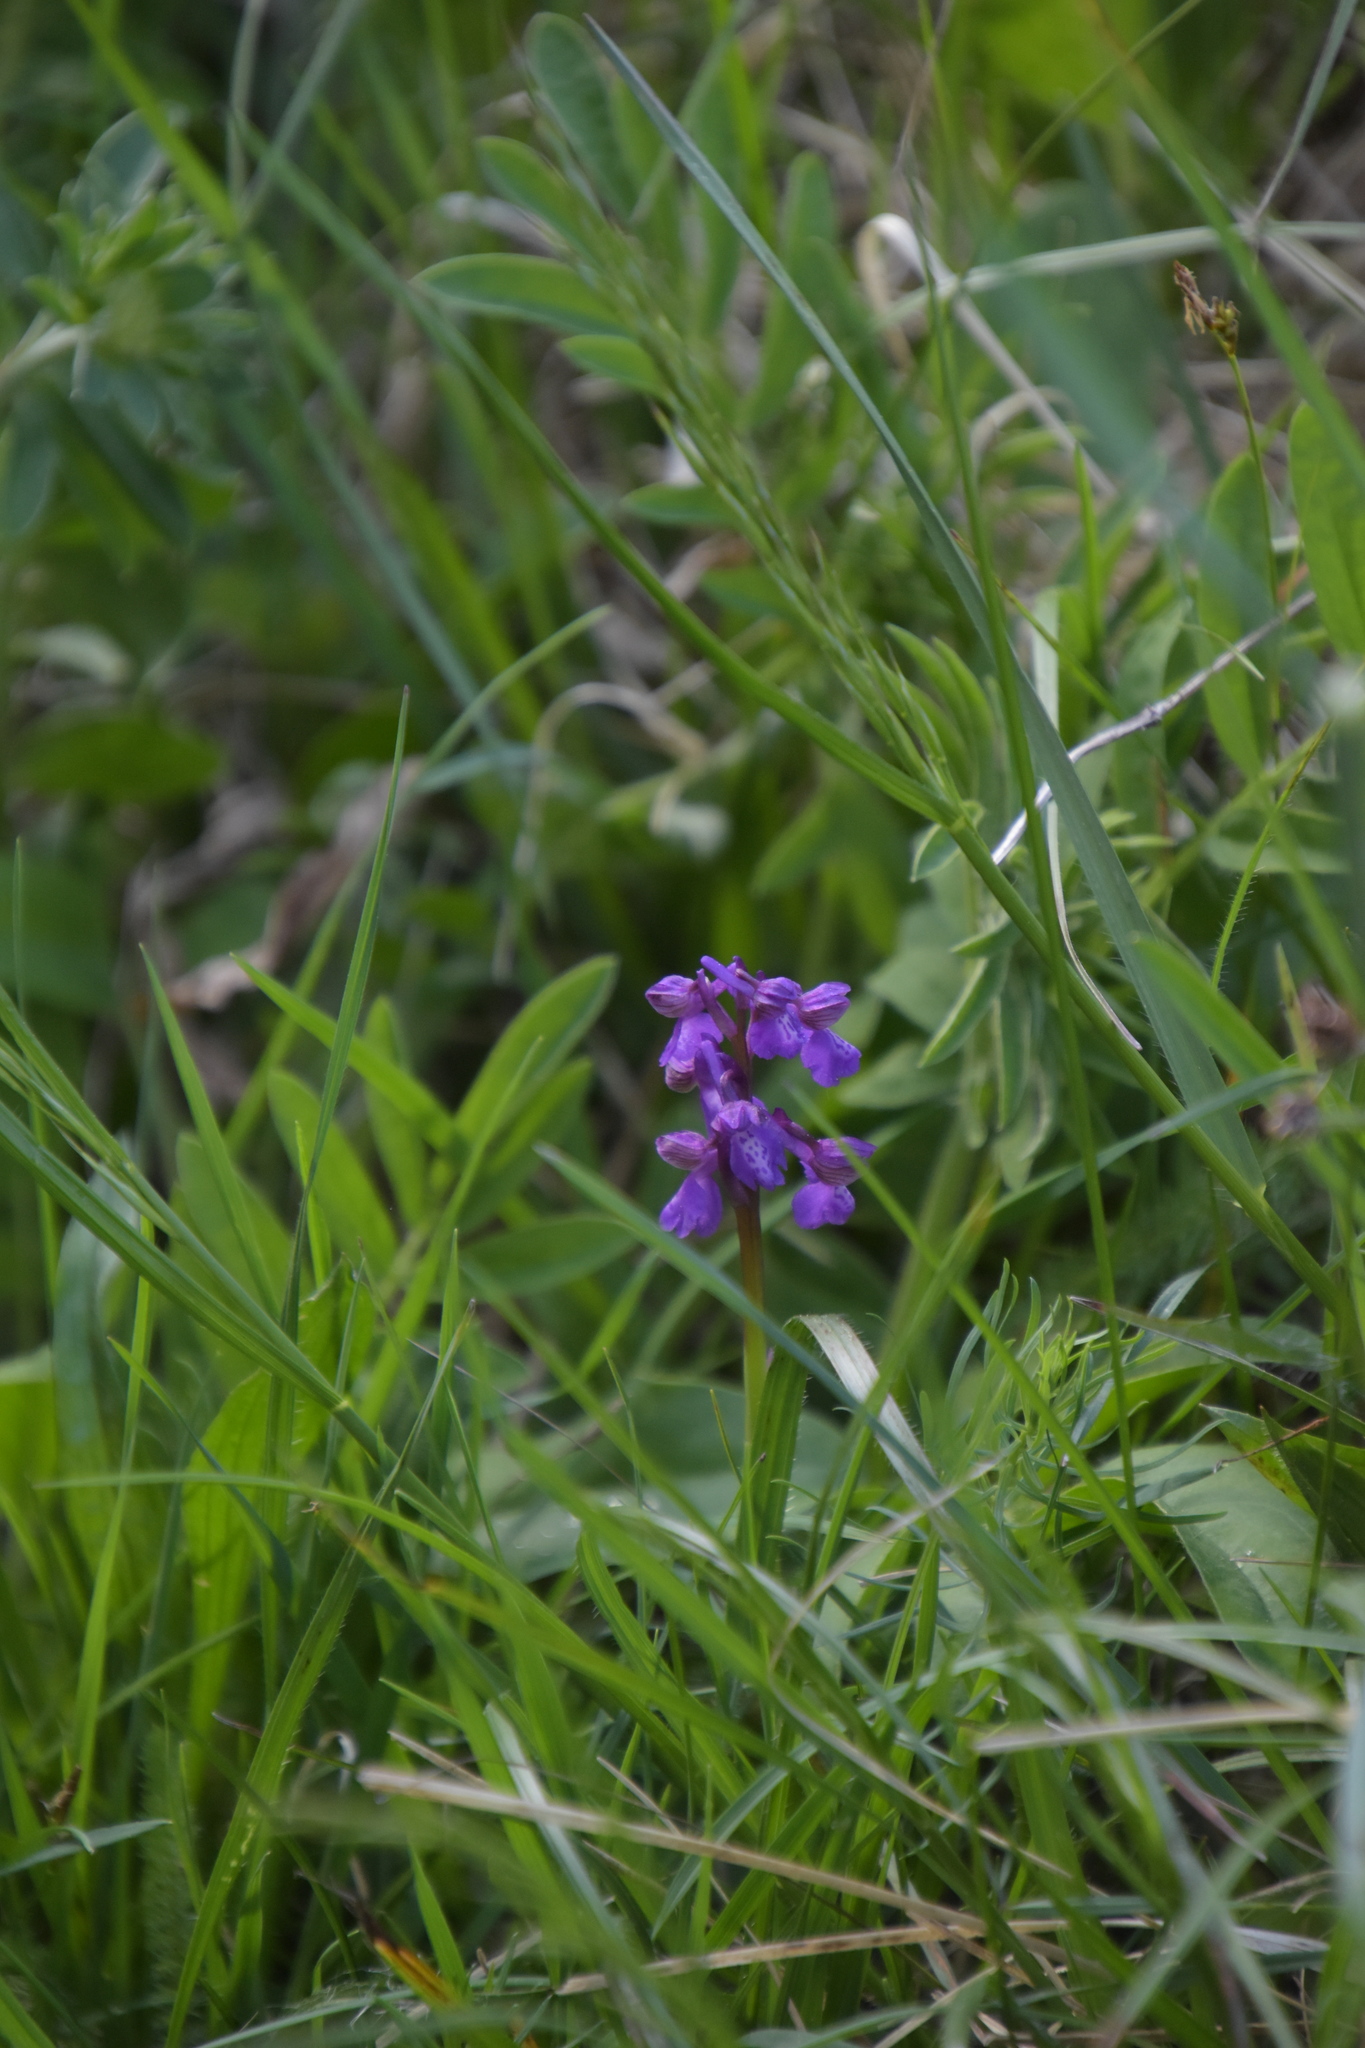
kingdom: Plantae
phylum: Tracheophyta
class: Liliopsida
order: Asparagales
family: Orchidaceae
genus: Anacamptis
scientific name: Anacamptis morio
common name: Green-winged orchid
